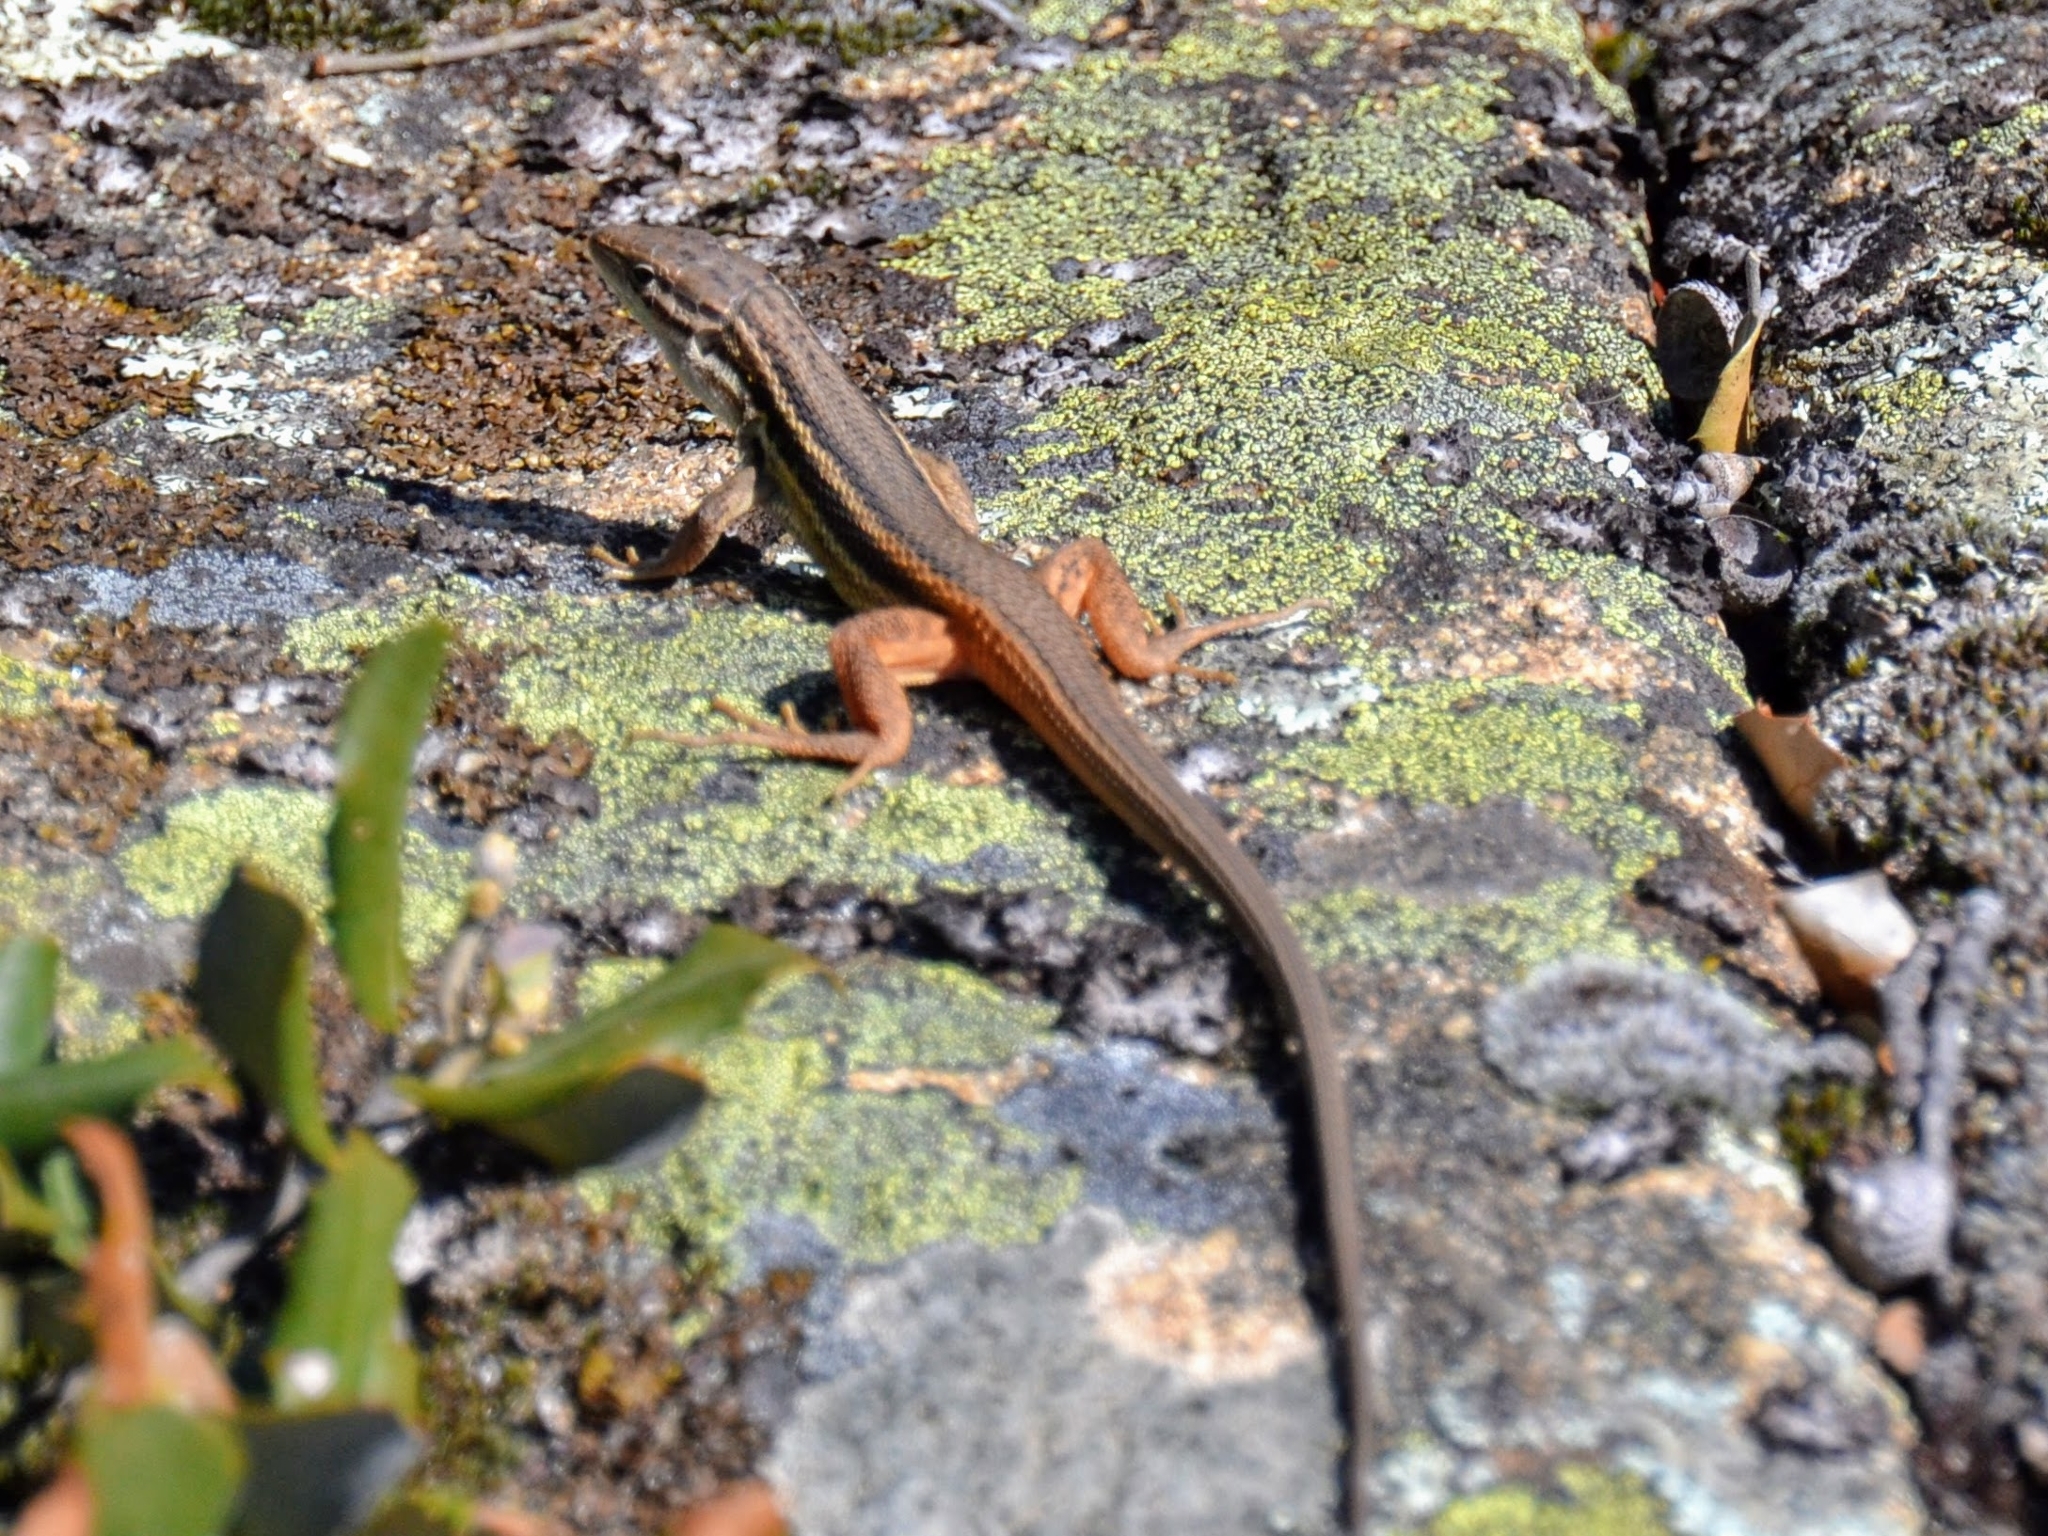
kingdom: Animalia
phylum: Chordata
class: Squamata
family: Lacertidae
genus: Psammodromus
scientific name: Psammodromus algirus
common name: Algerian psammodromus
